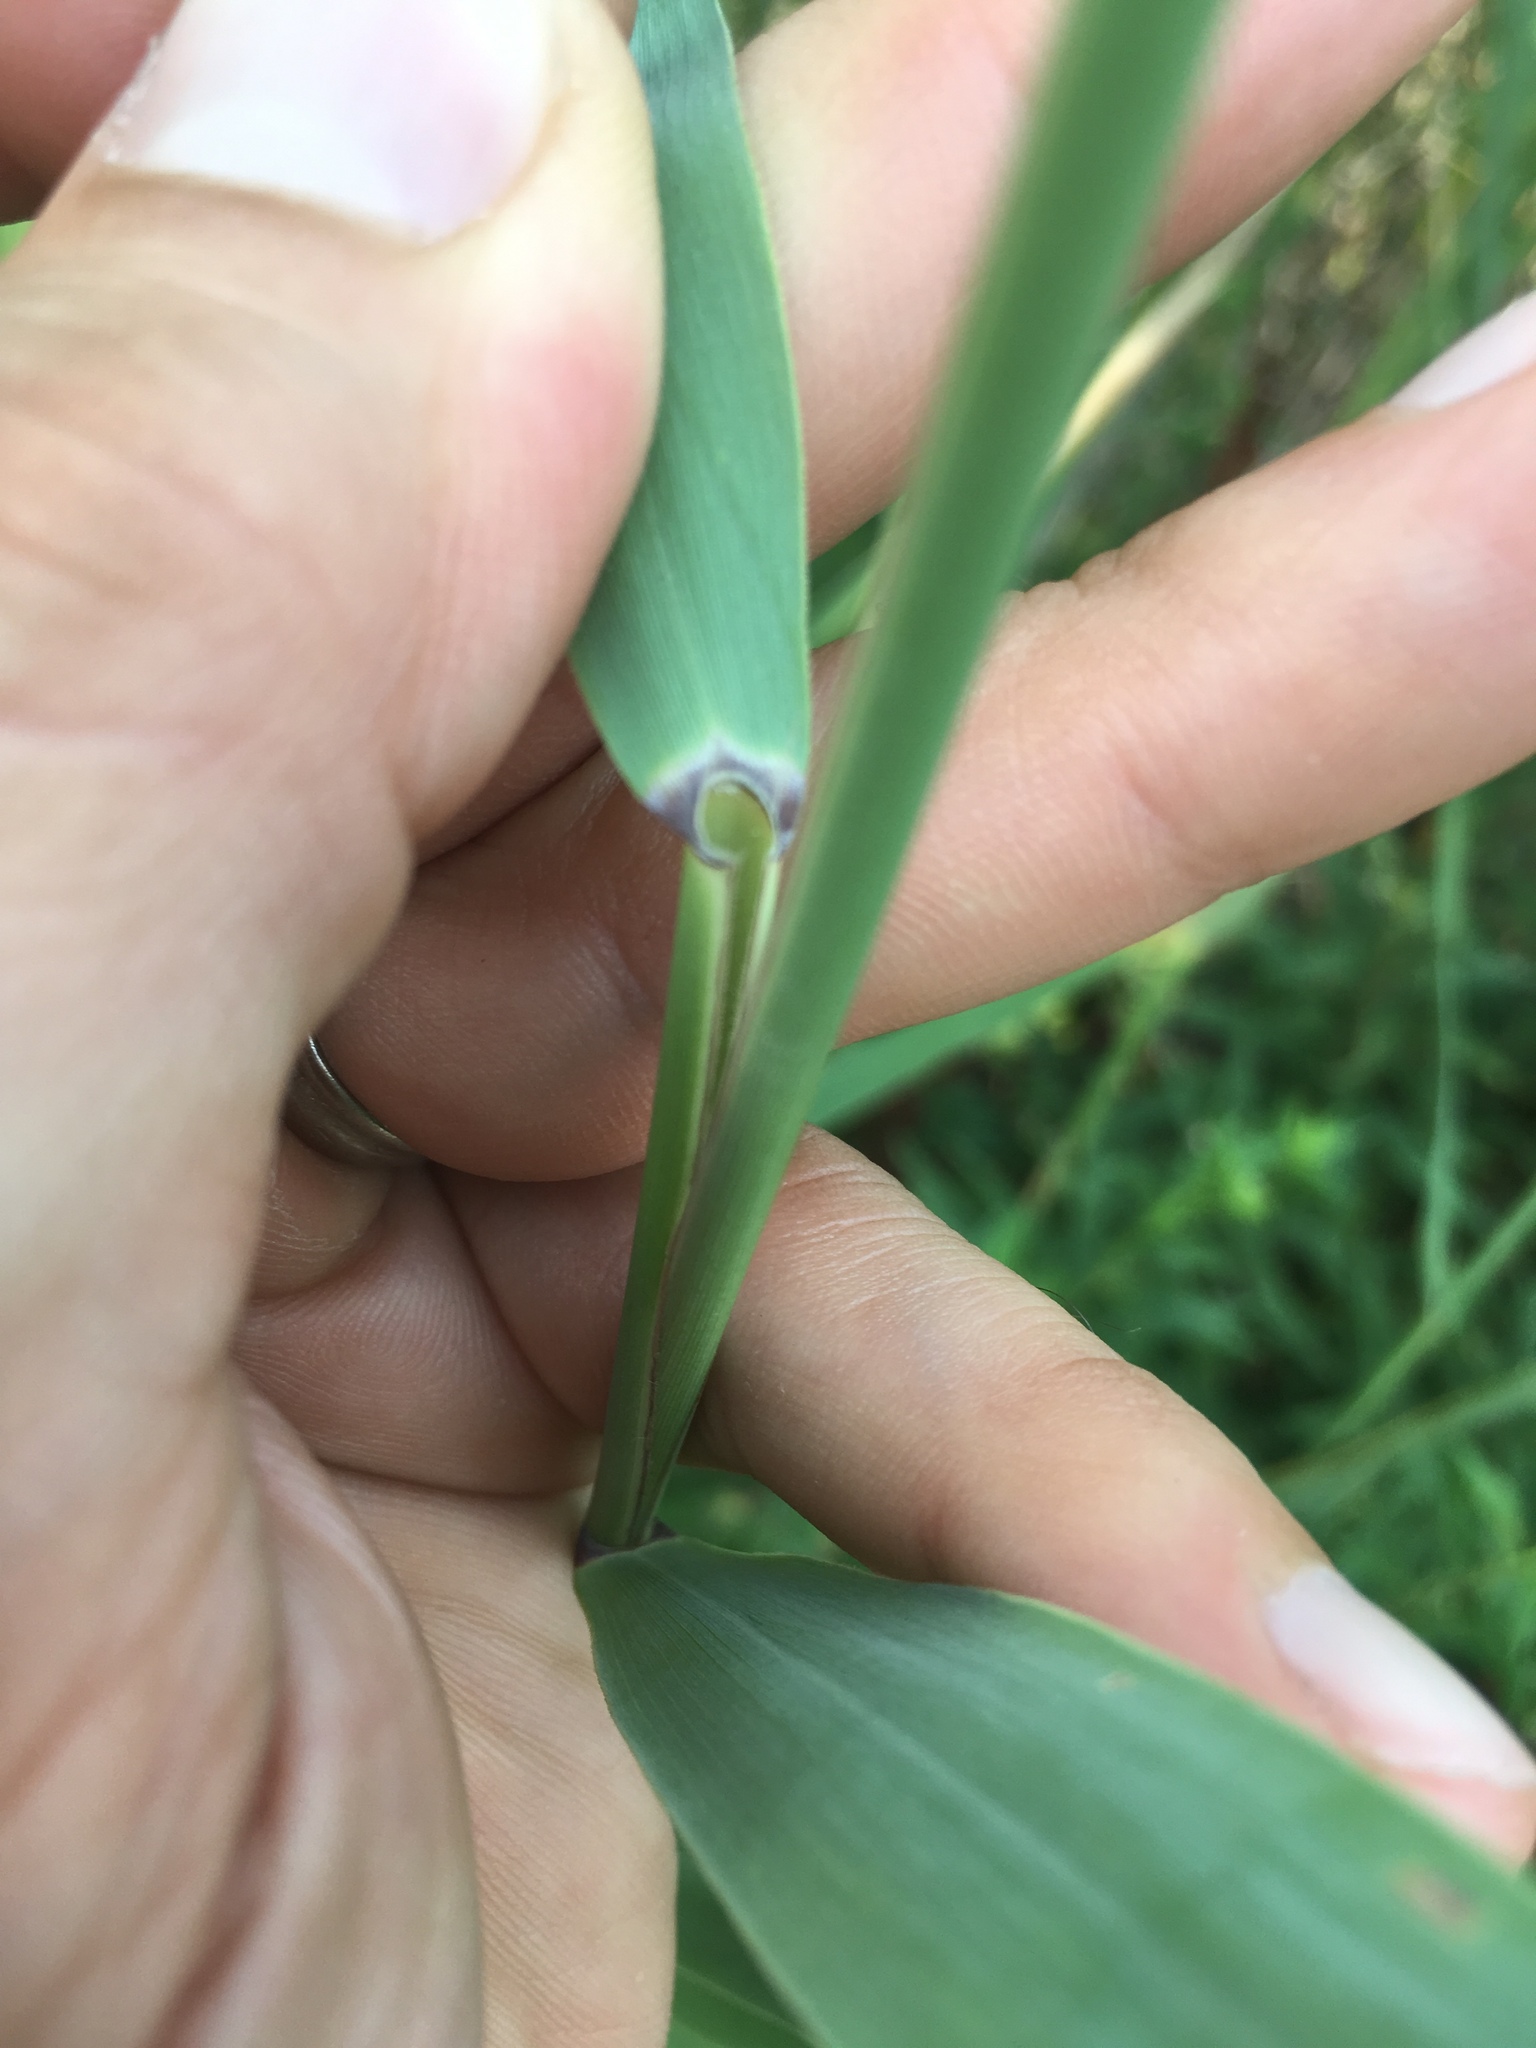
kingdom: Plantae
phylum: Tracheophyta
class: Liliopsida
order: Poales
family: Poaceae
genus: Phragmites
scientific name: Phragmites australis
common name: Common reed
